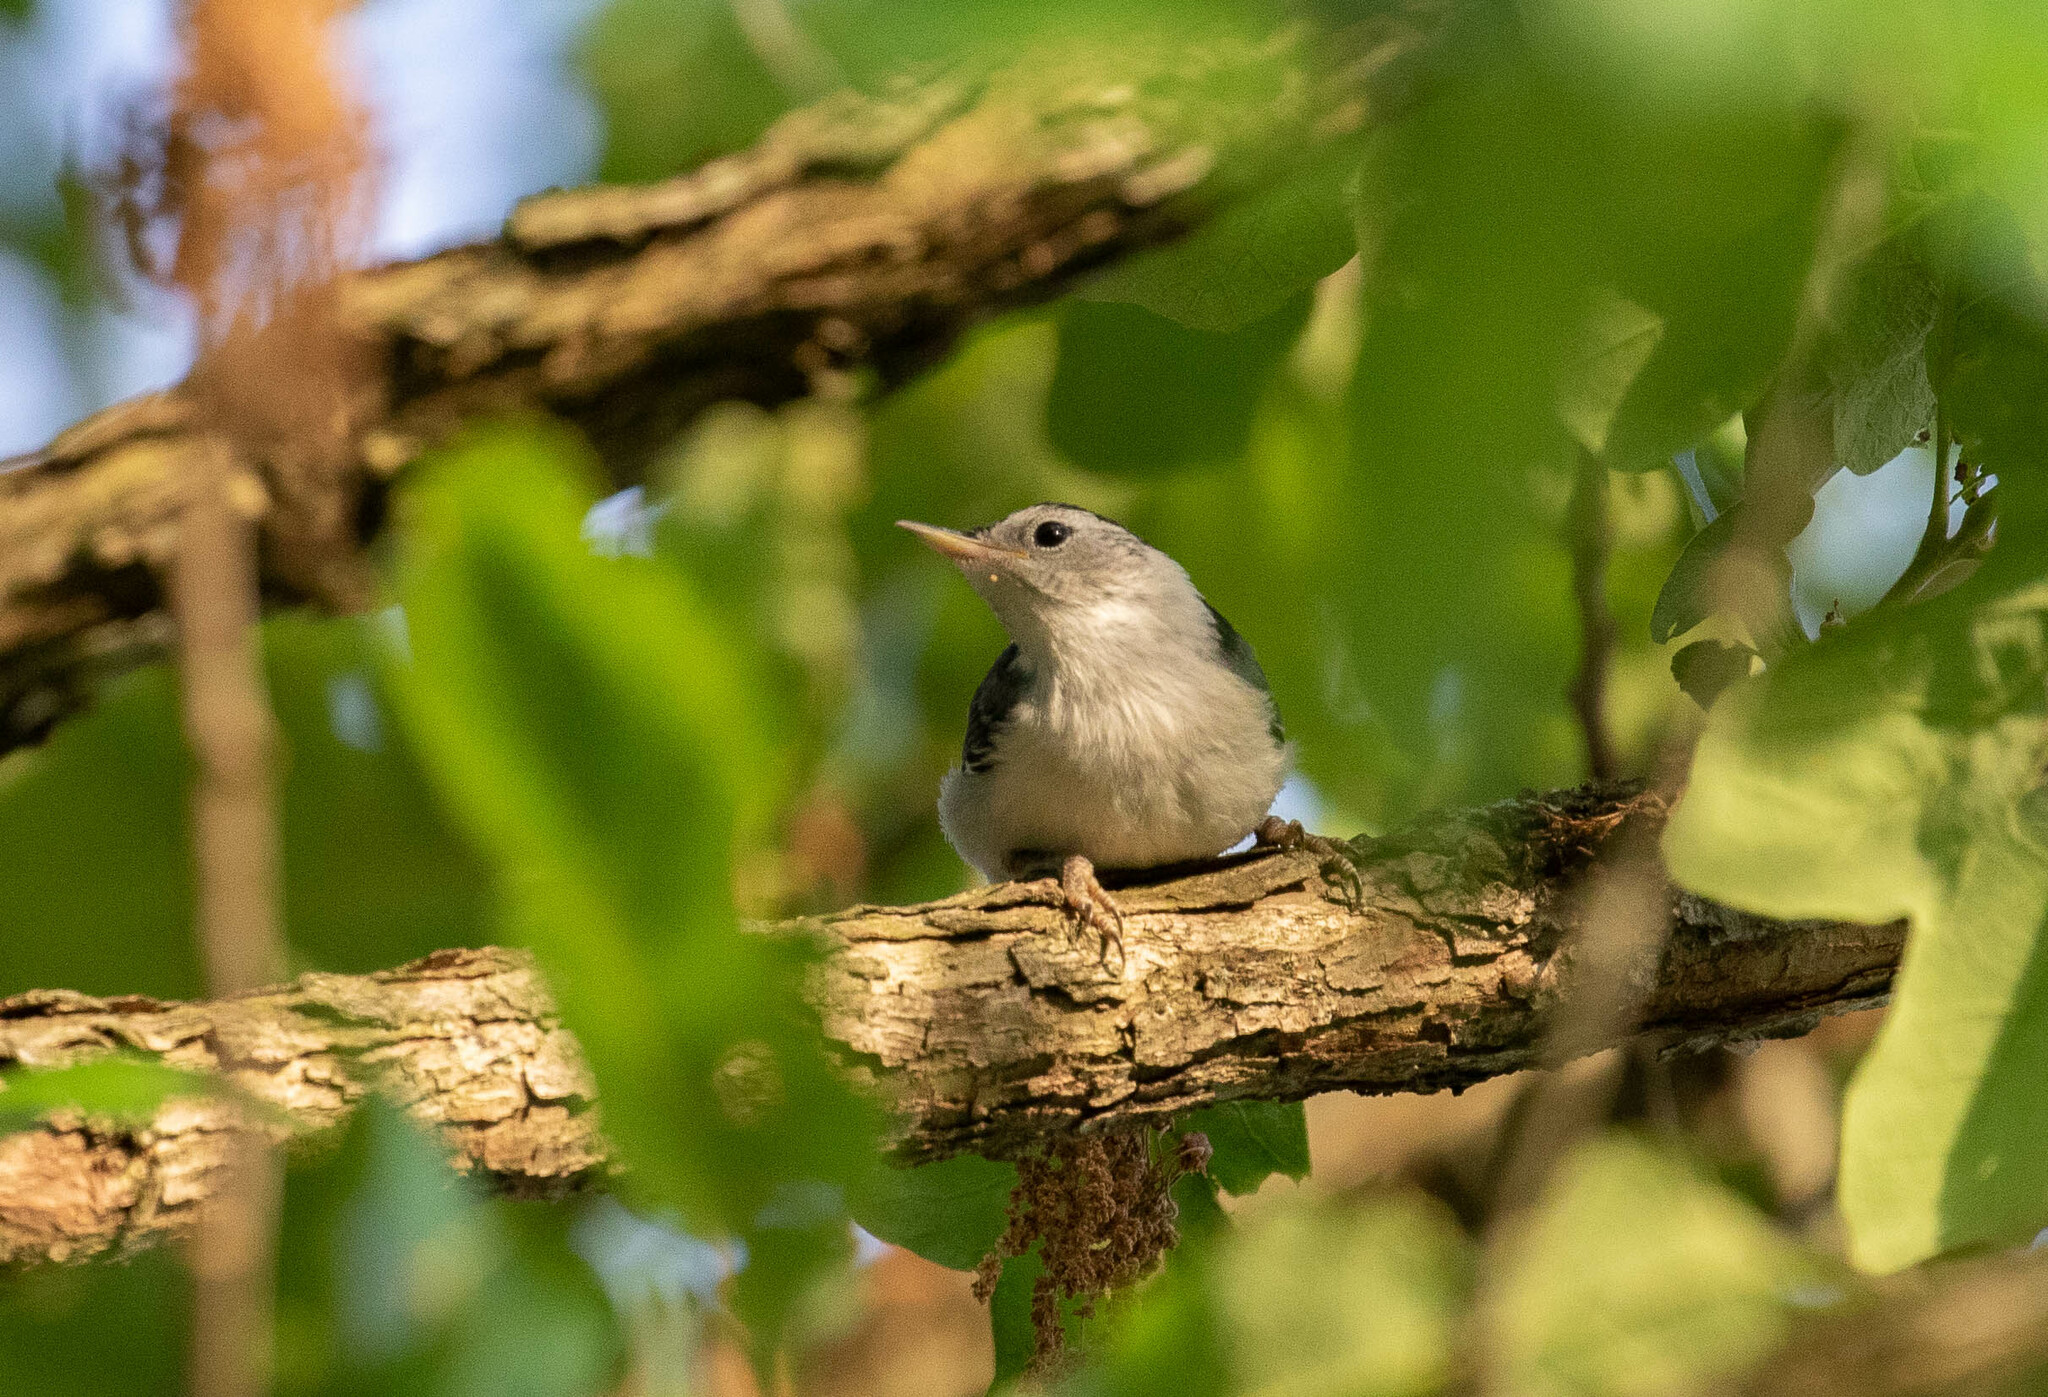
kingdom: Animalia
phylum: Chordata
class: Aves
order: Passeriformes
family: Sittidae
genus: Sitta
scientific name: Sitta carolinensis
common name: White-breasted nuthatch
